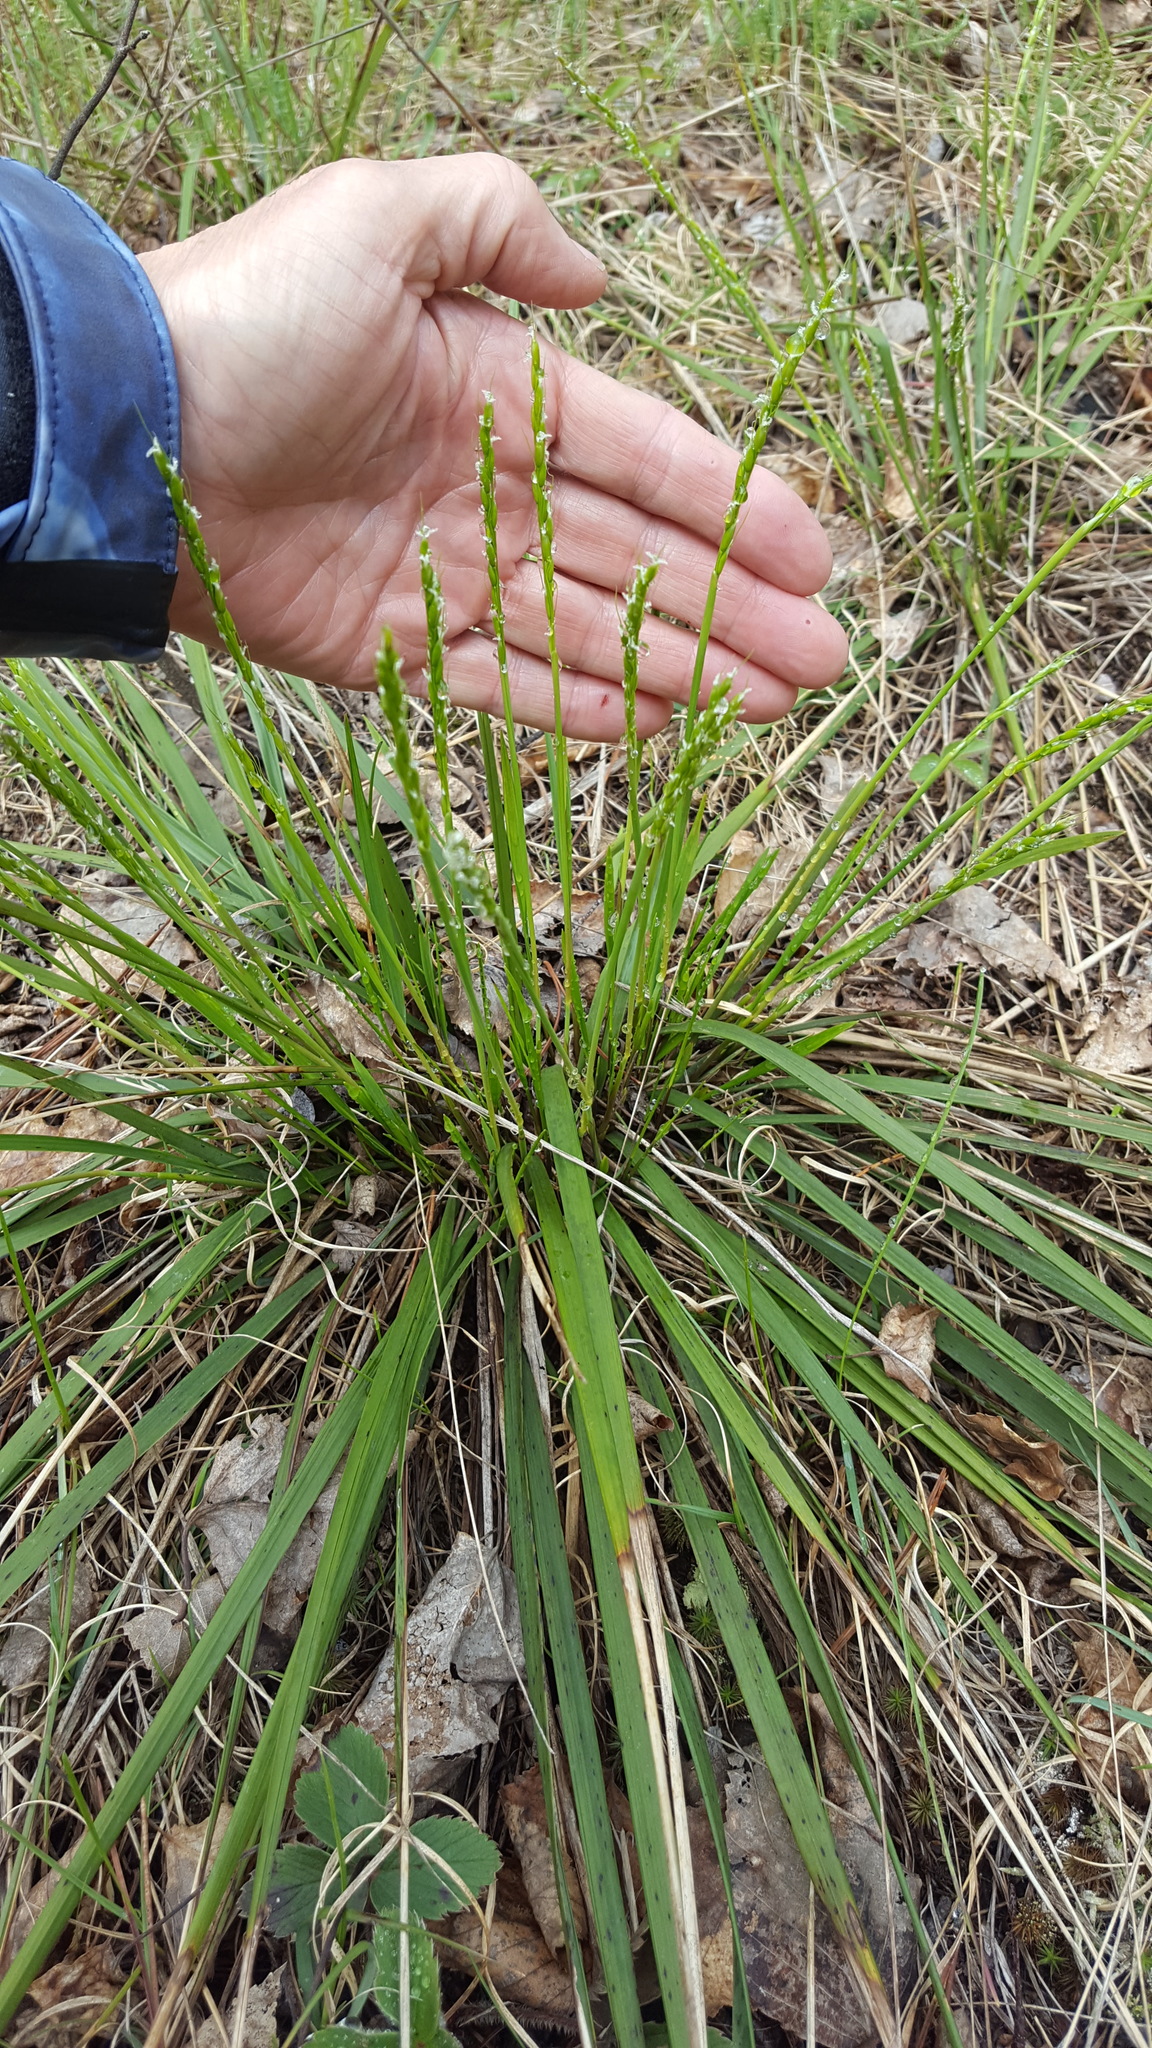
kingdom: Plantae
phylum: Tracheophyta
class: Liliopsida
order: Poales
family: Poaceae
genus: Oryzopsis
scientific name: Oryzopsis asperifolia
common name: Rough-leaved mountain rice
